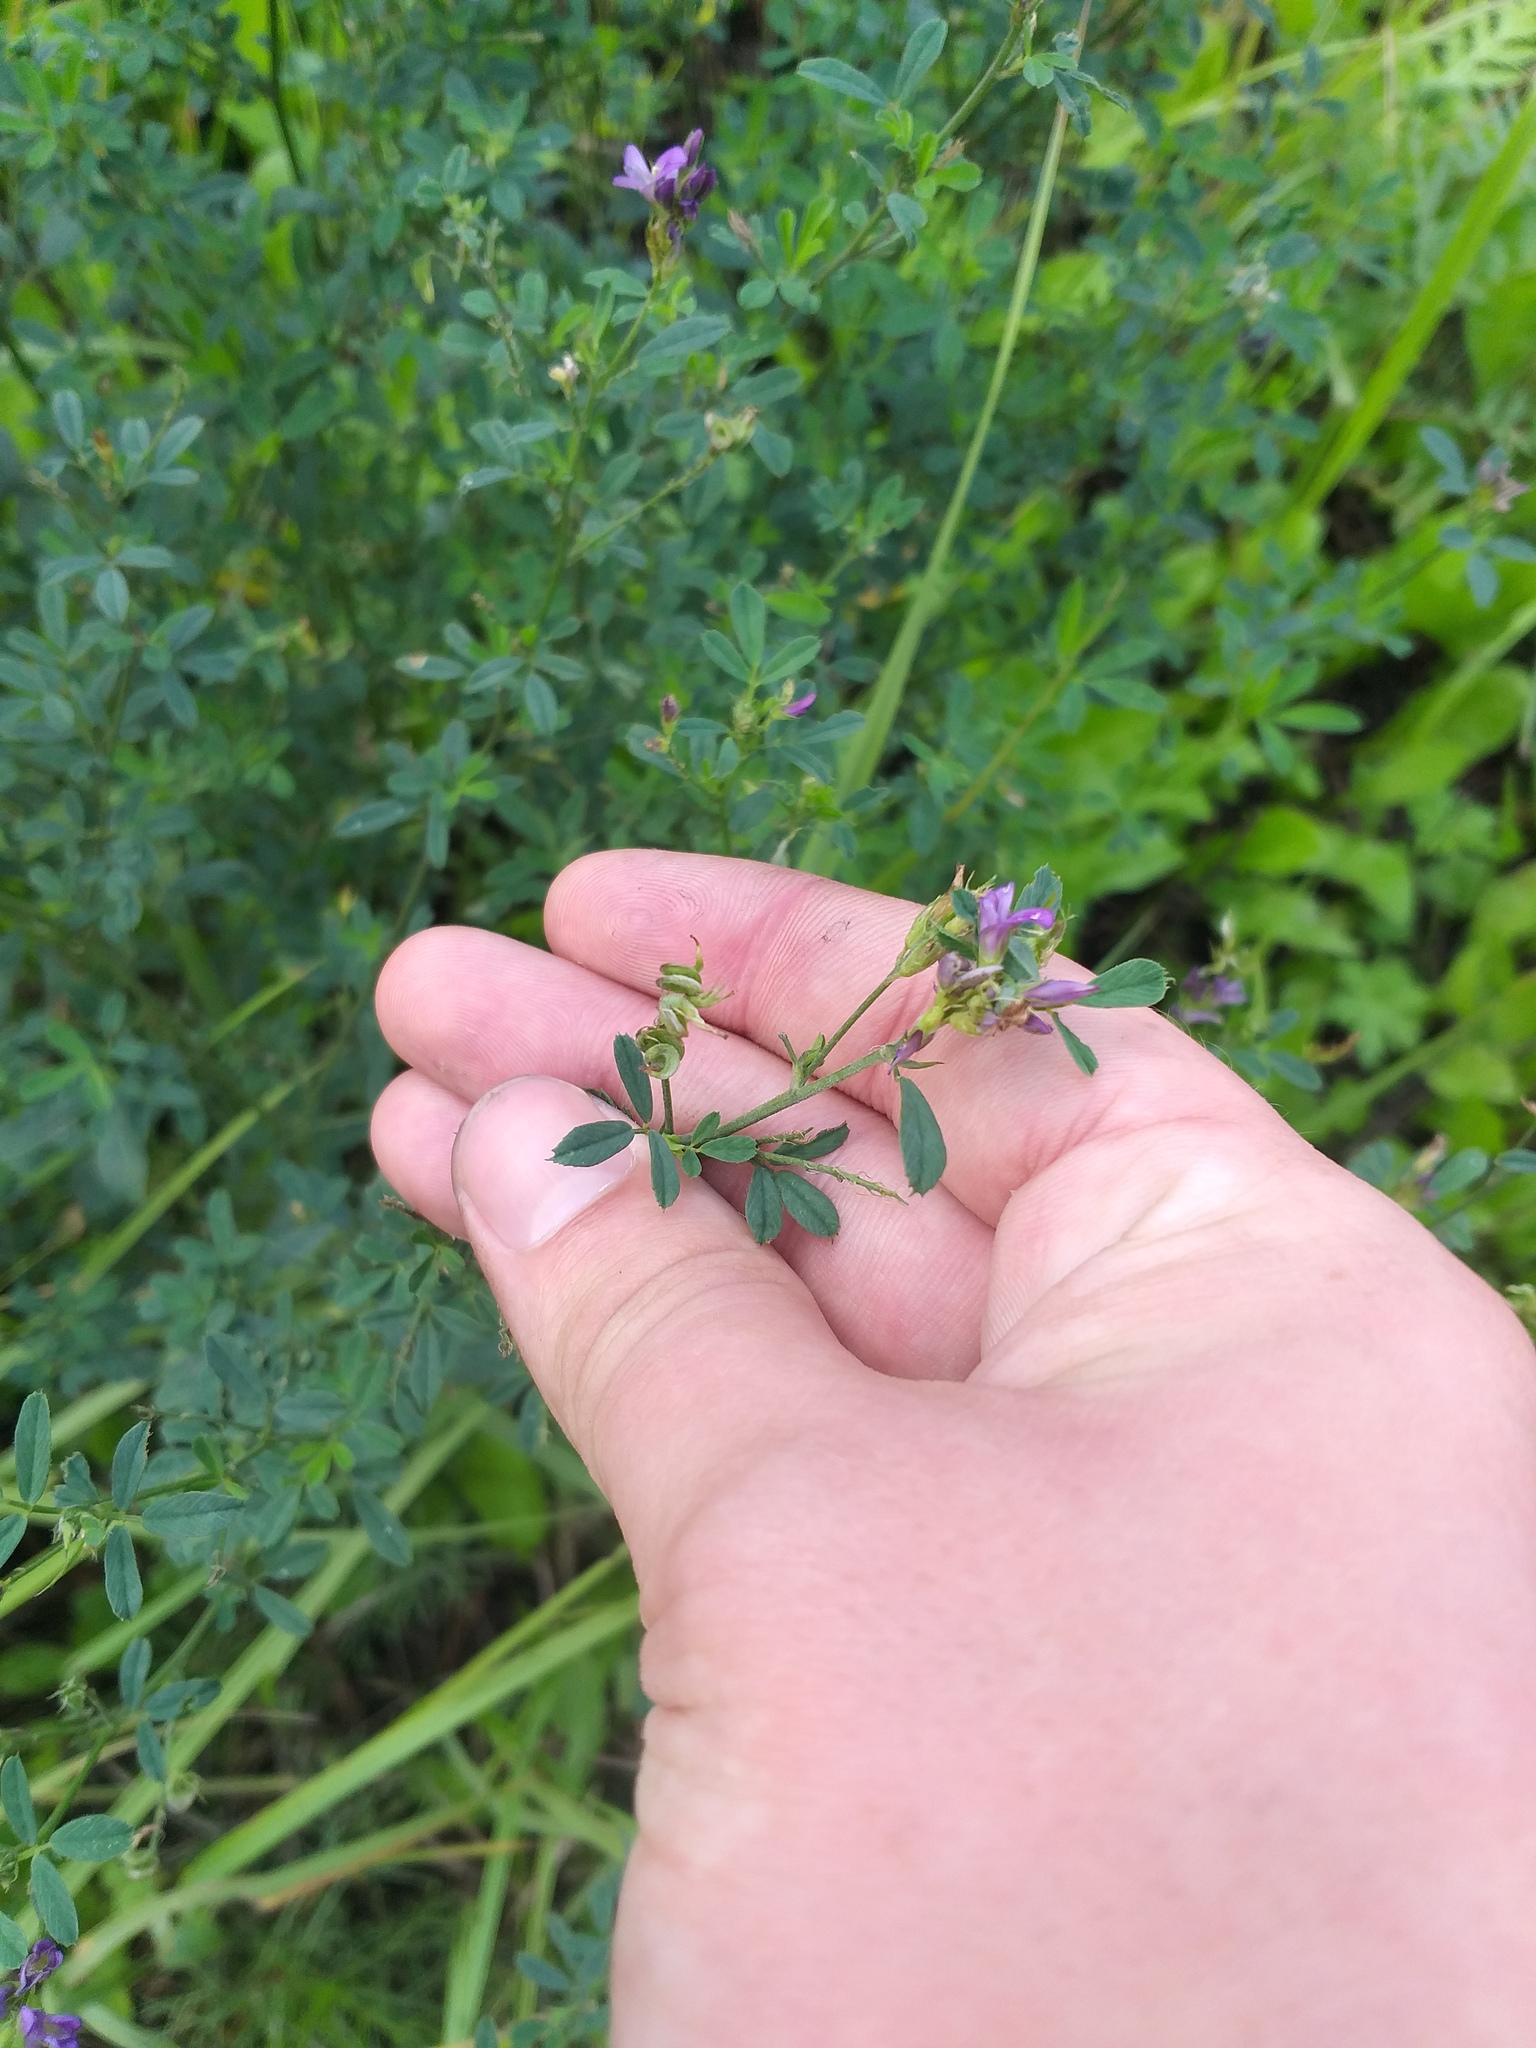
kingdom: Plantae
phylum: Tracheophyta
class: Magnoliopsida
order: Fabales
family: Fabaceae
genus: Medicago
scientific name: Medicago sativa
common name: Alfalfa
